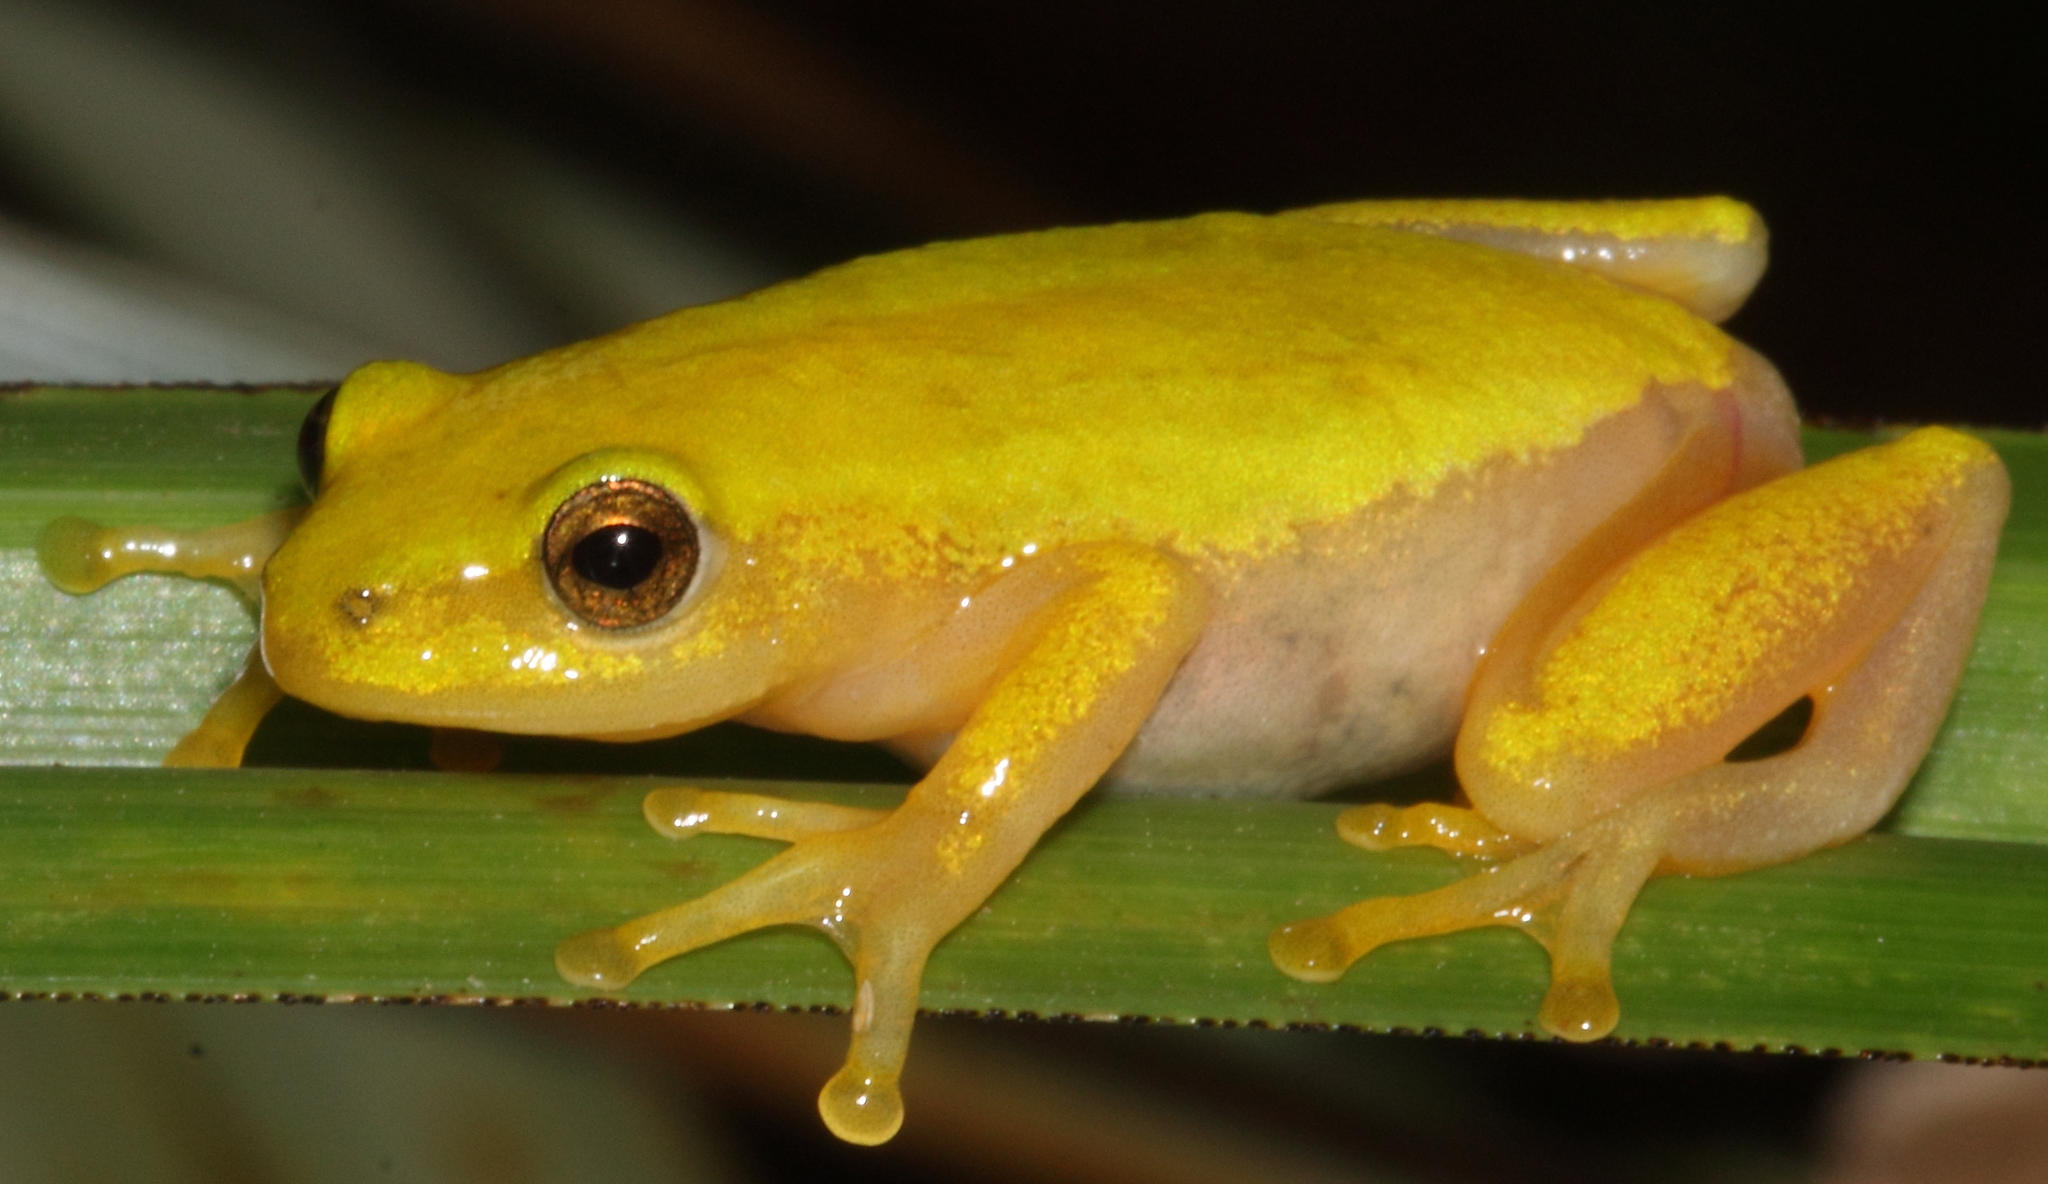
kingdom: Animalia
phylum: Chordata
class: Amphibia
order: Anura
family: Hyperoliidae
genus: Hyperolius
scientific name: Hyperolius pickersgilli
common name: Pickersgill's reed frog
